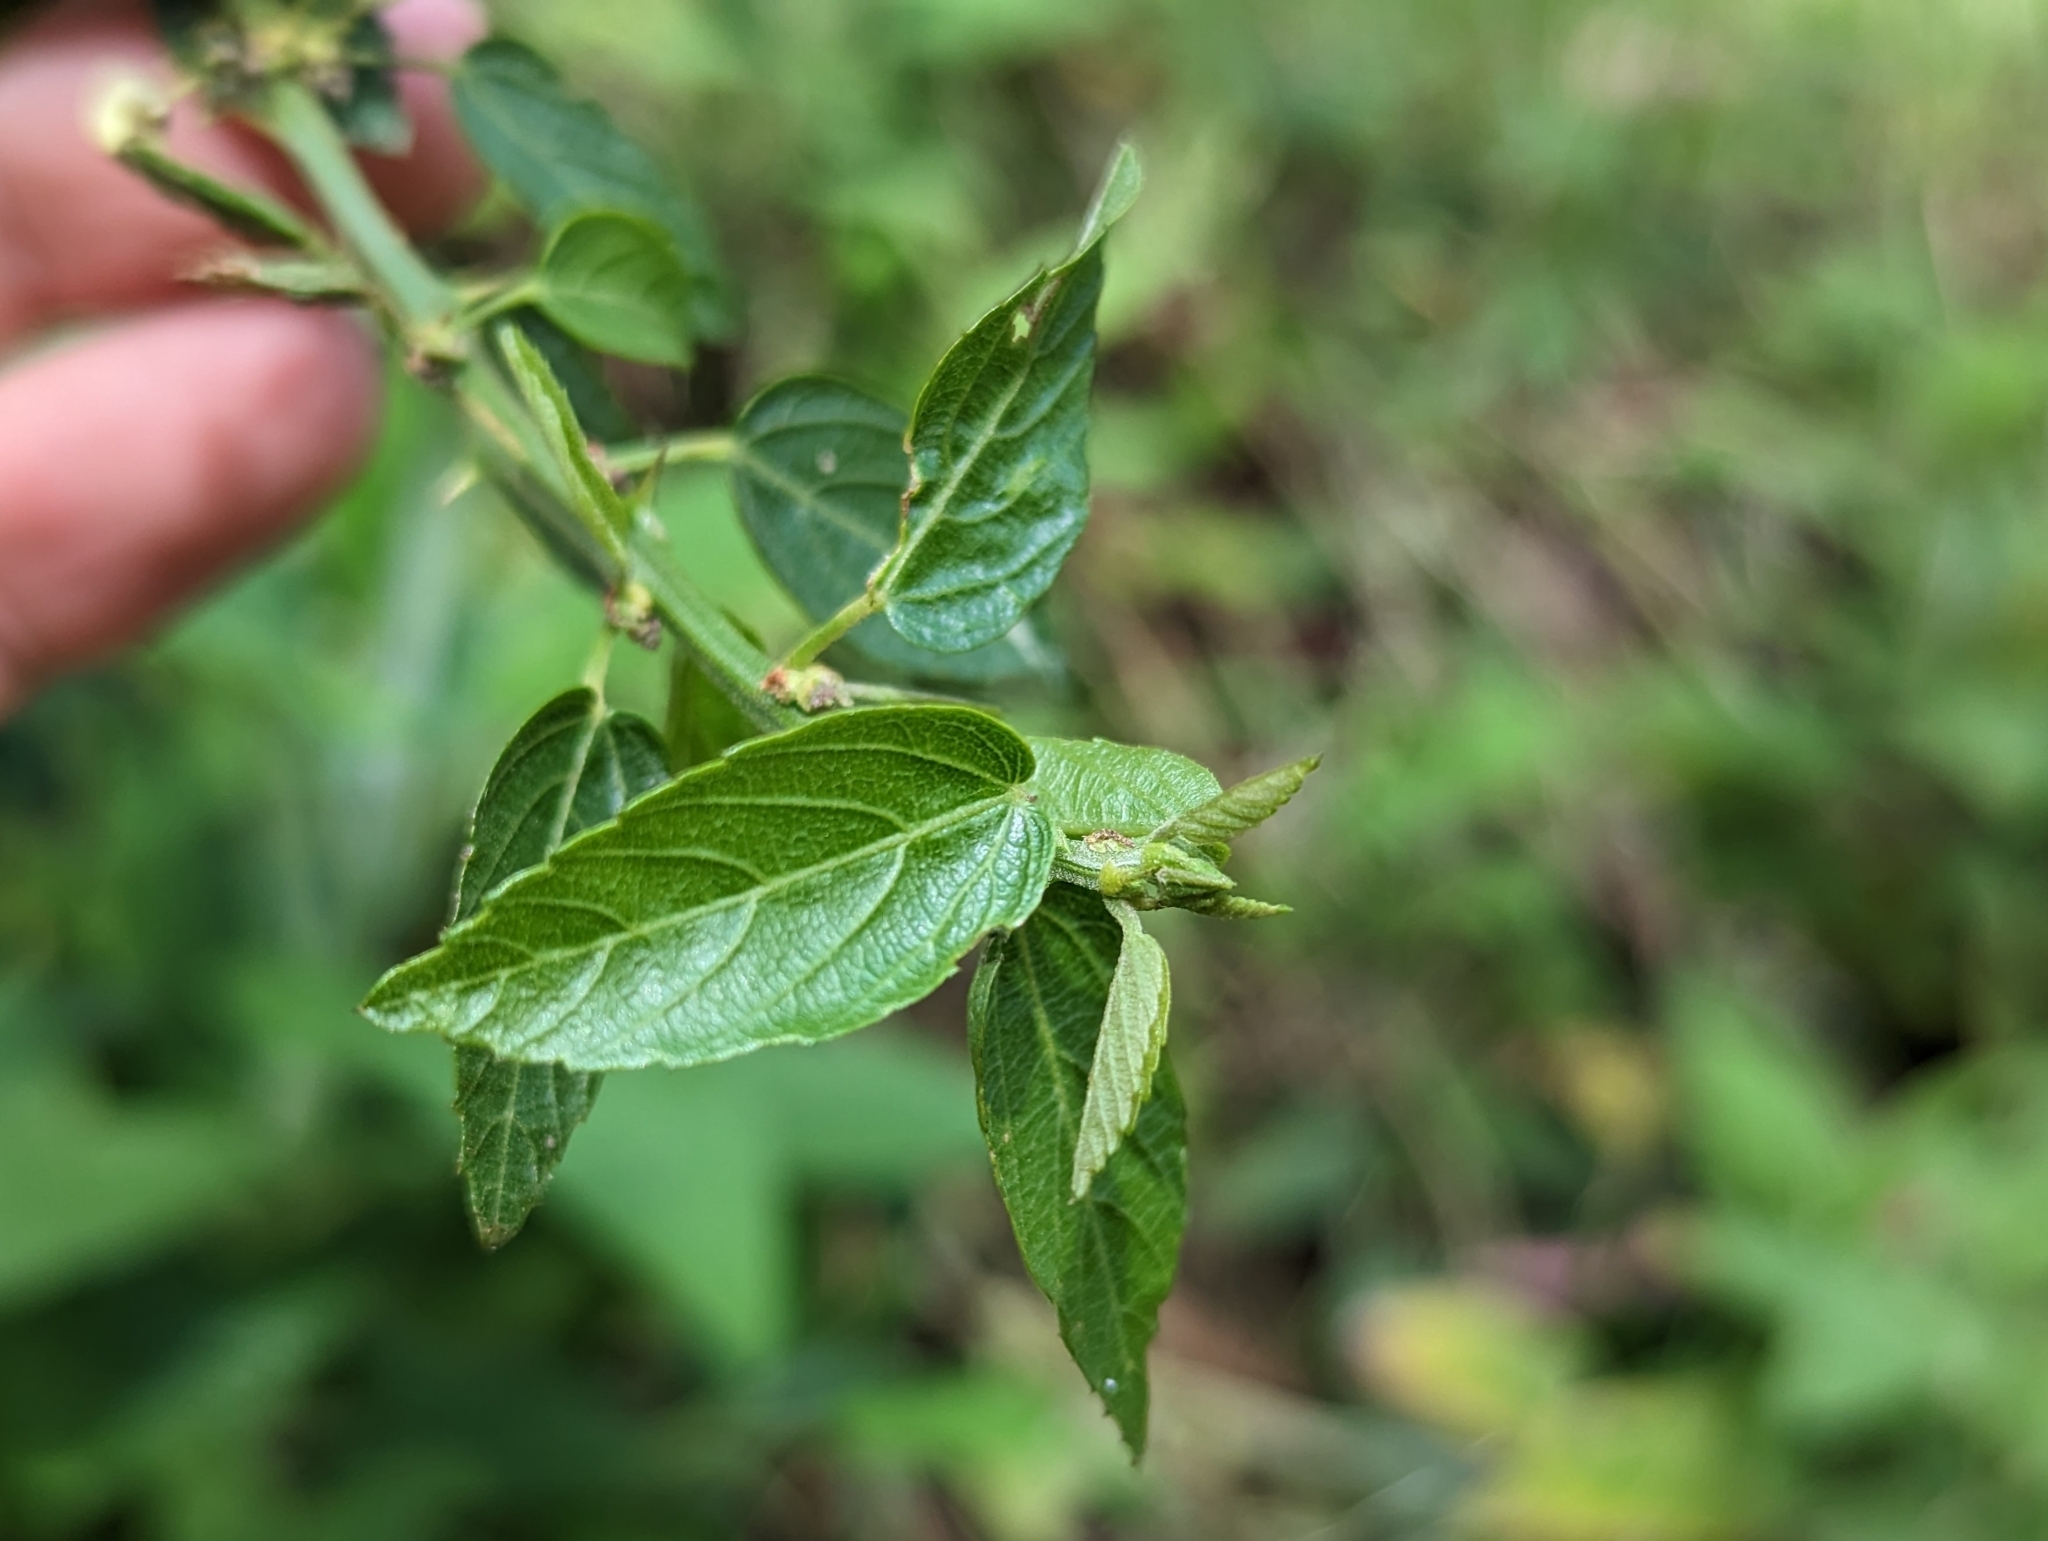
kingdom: Plantae
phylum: Tracheophyta
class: Magnoliopsida
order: Malvales
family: Malvaceae
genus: Byttneria
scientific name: Byttneria ovata
